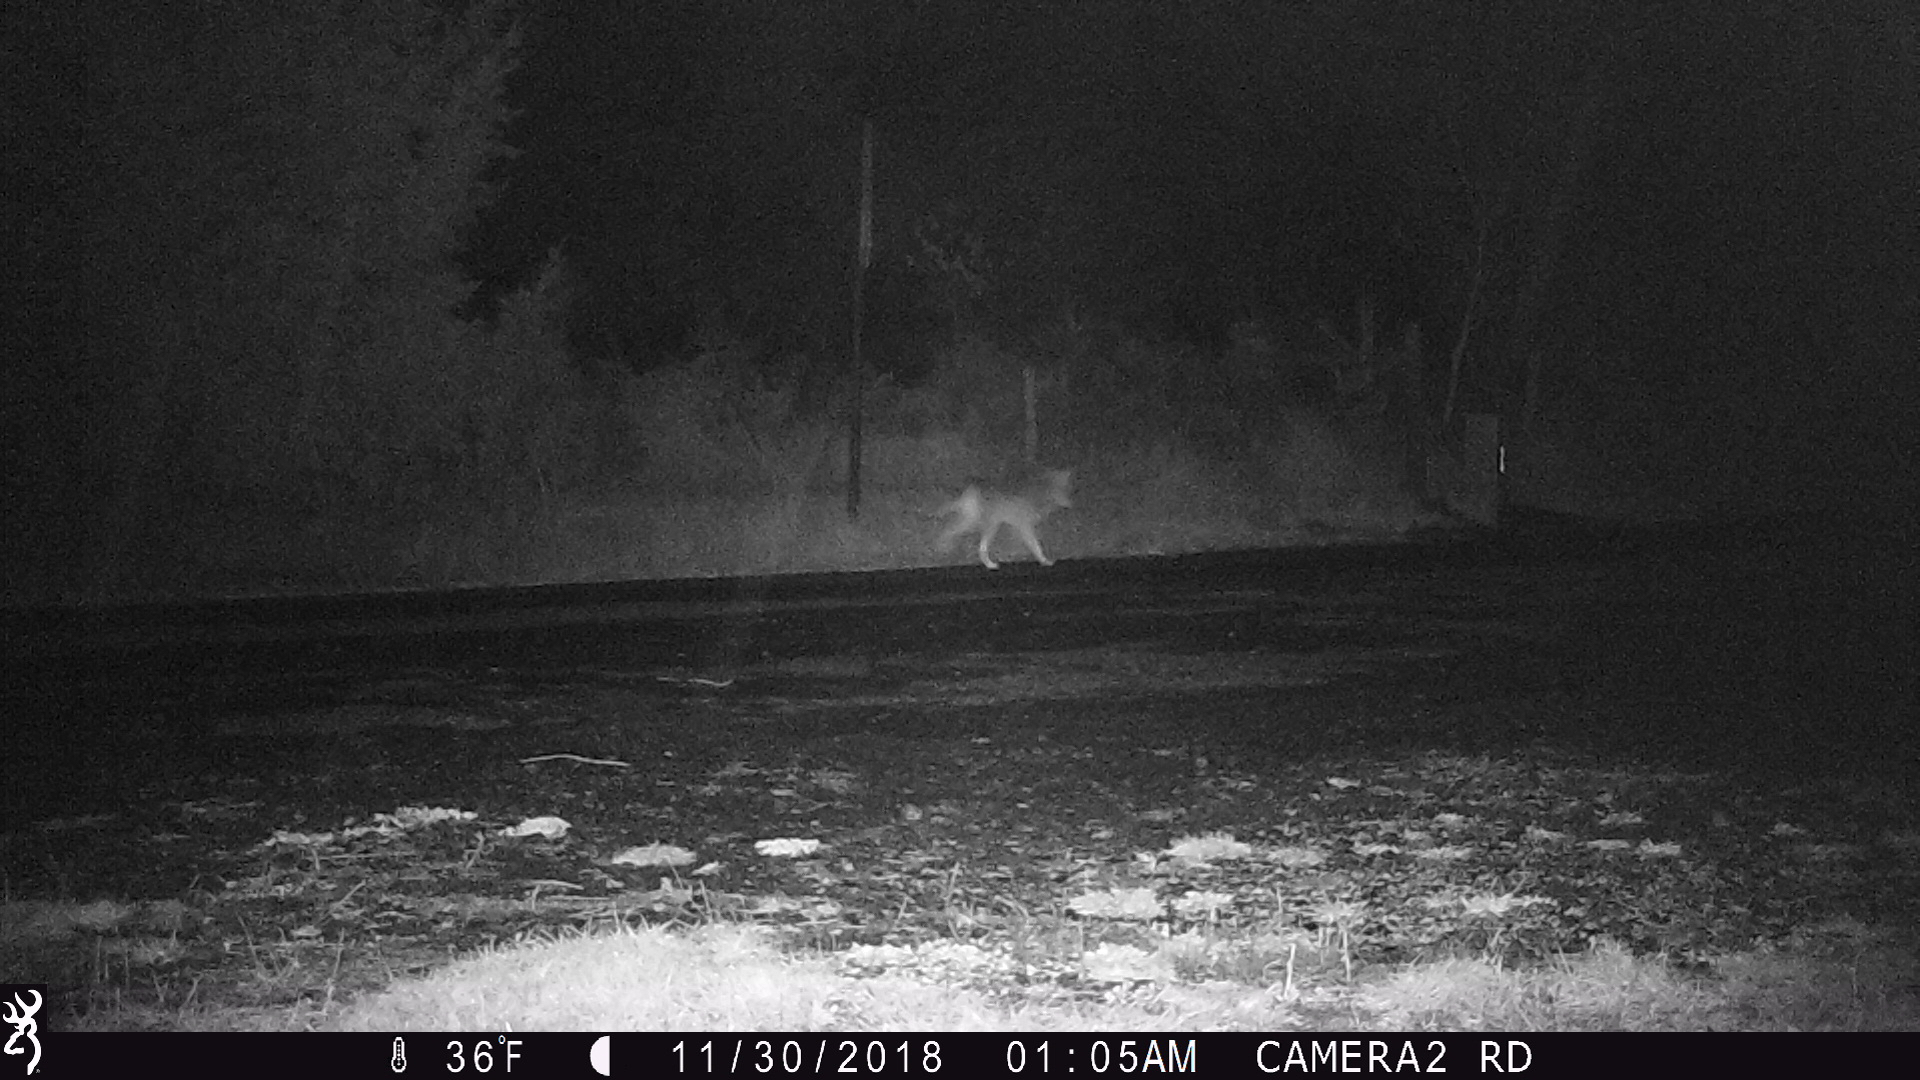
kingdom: Animalia
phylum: Chordata
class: Mammalia
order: Carnivora
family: Canidae
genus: Canis
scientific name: Canis latrans
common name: Coyote
